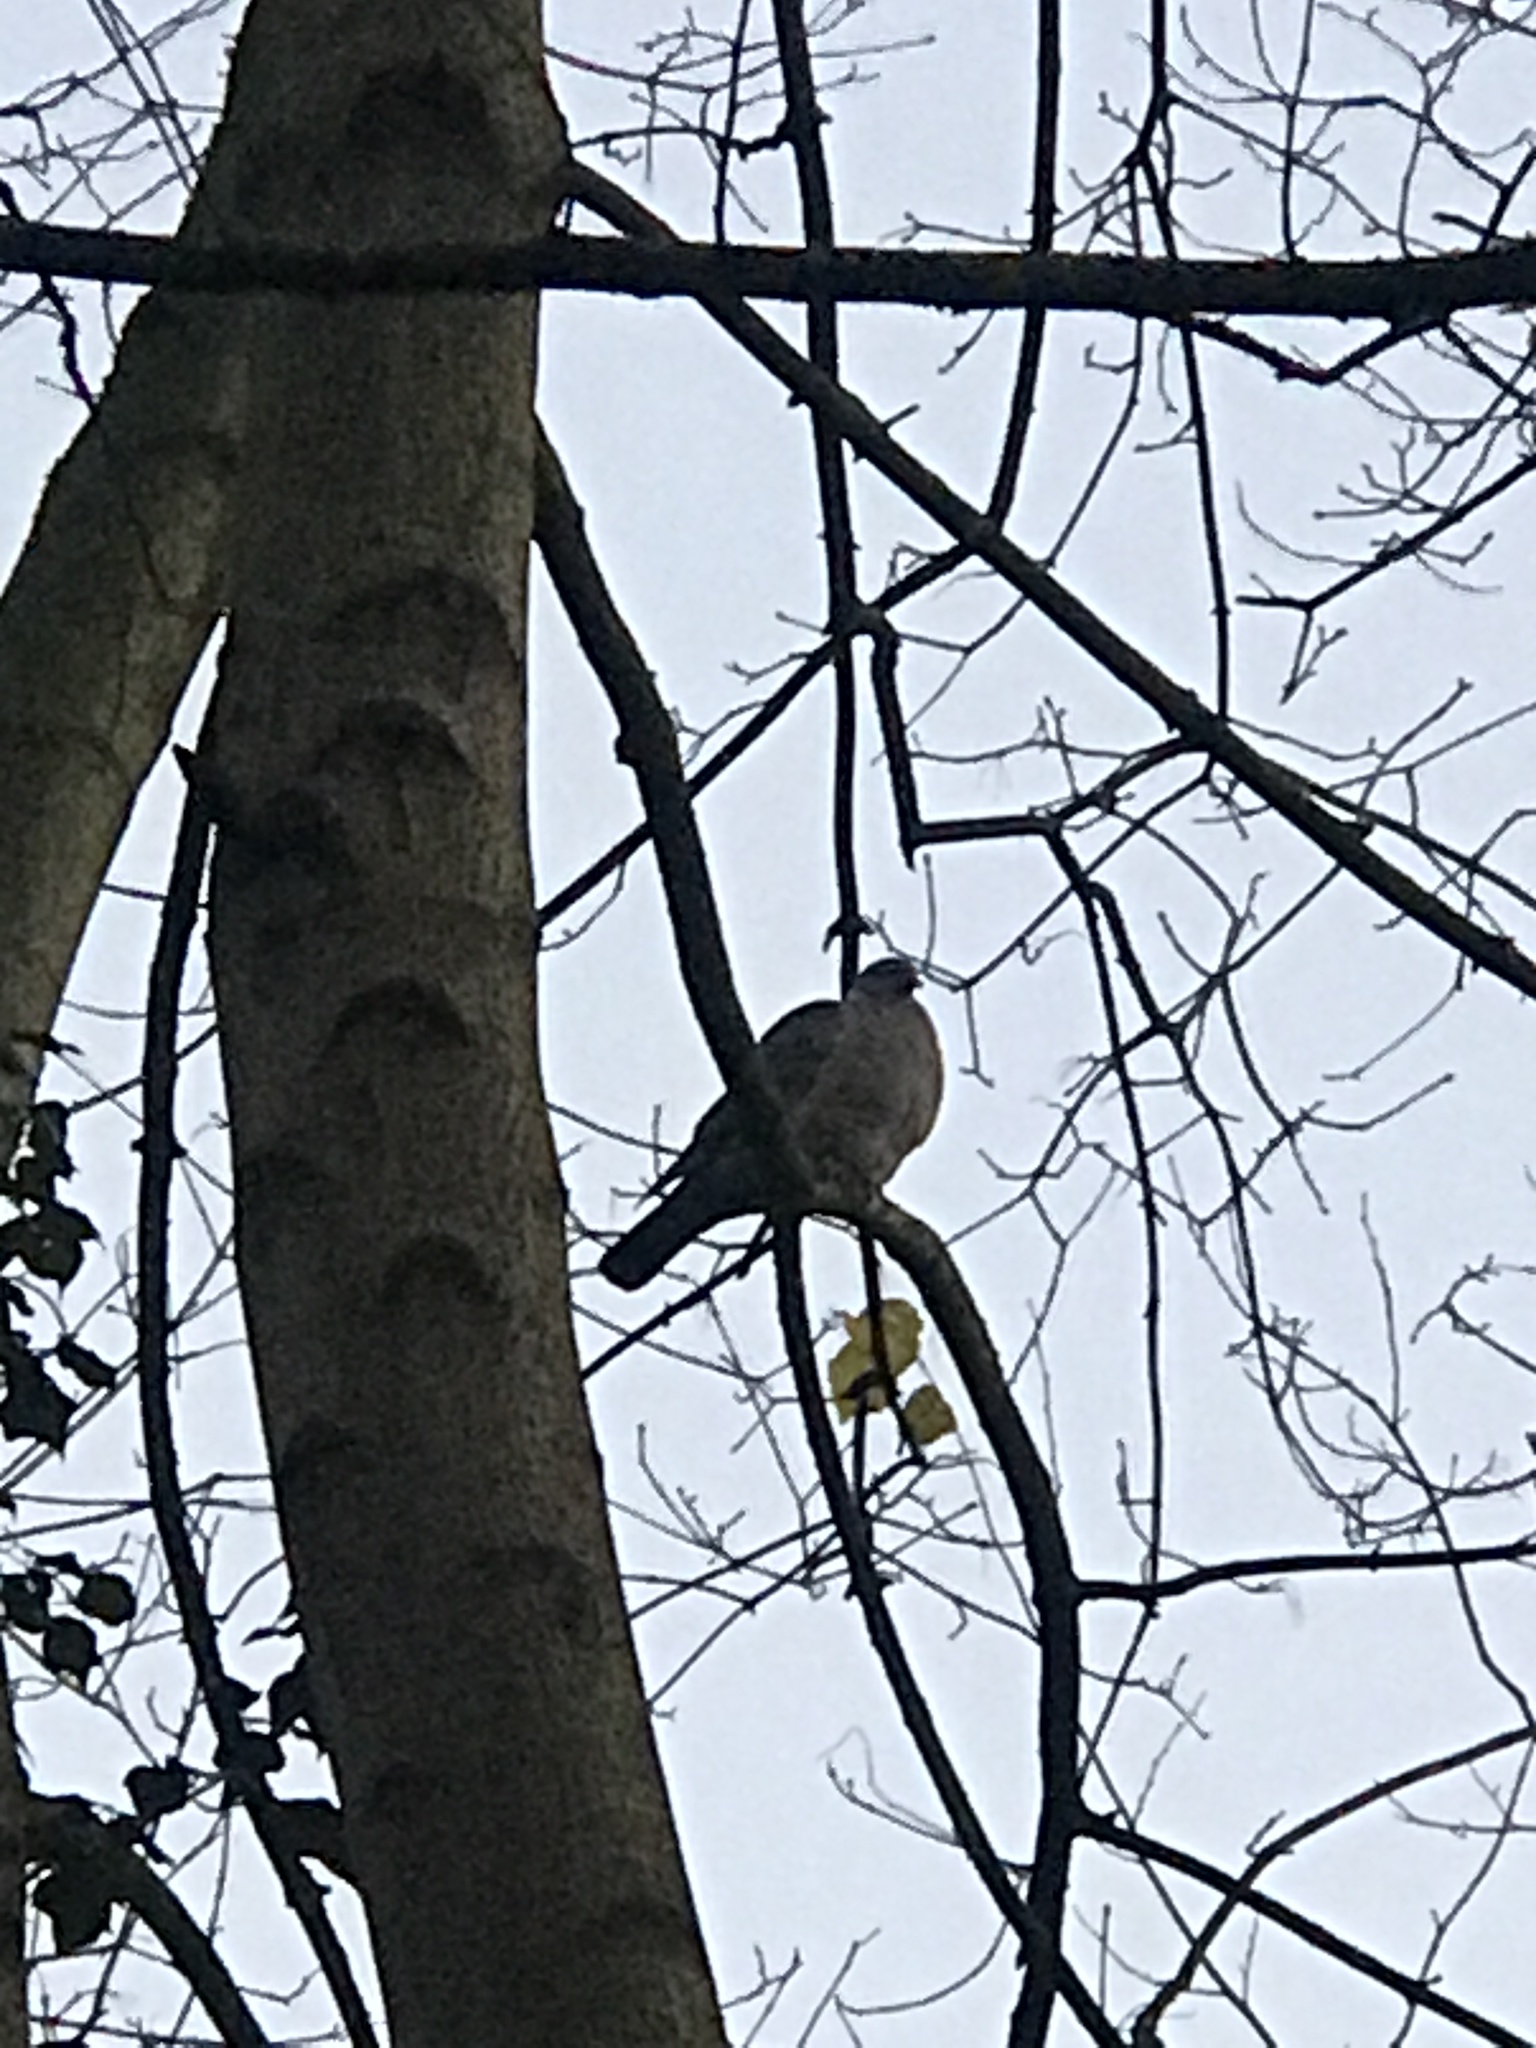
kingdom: Animalia
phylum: Chordata
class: Aves
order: Columbiformes
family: Columbidae
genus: Columba
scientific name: Columba palumbus
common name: Common wood pigeon
